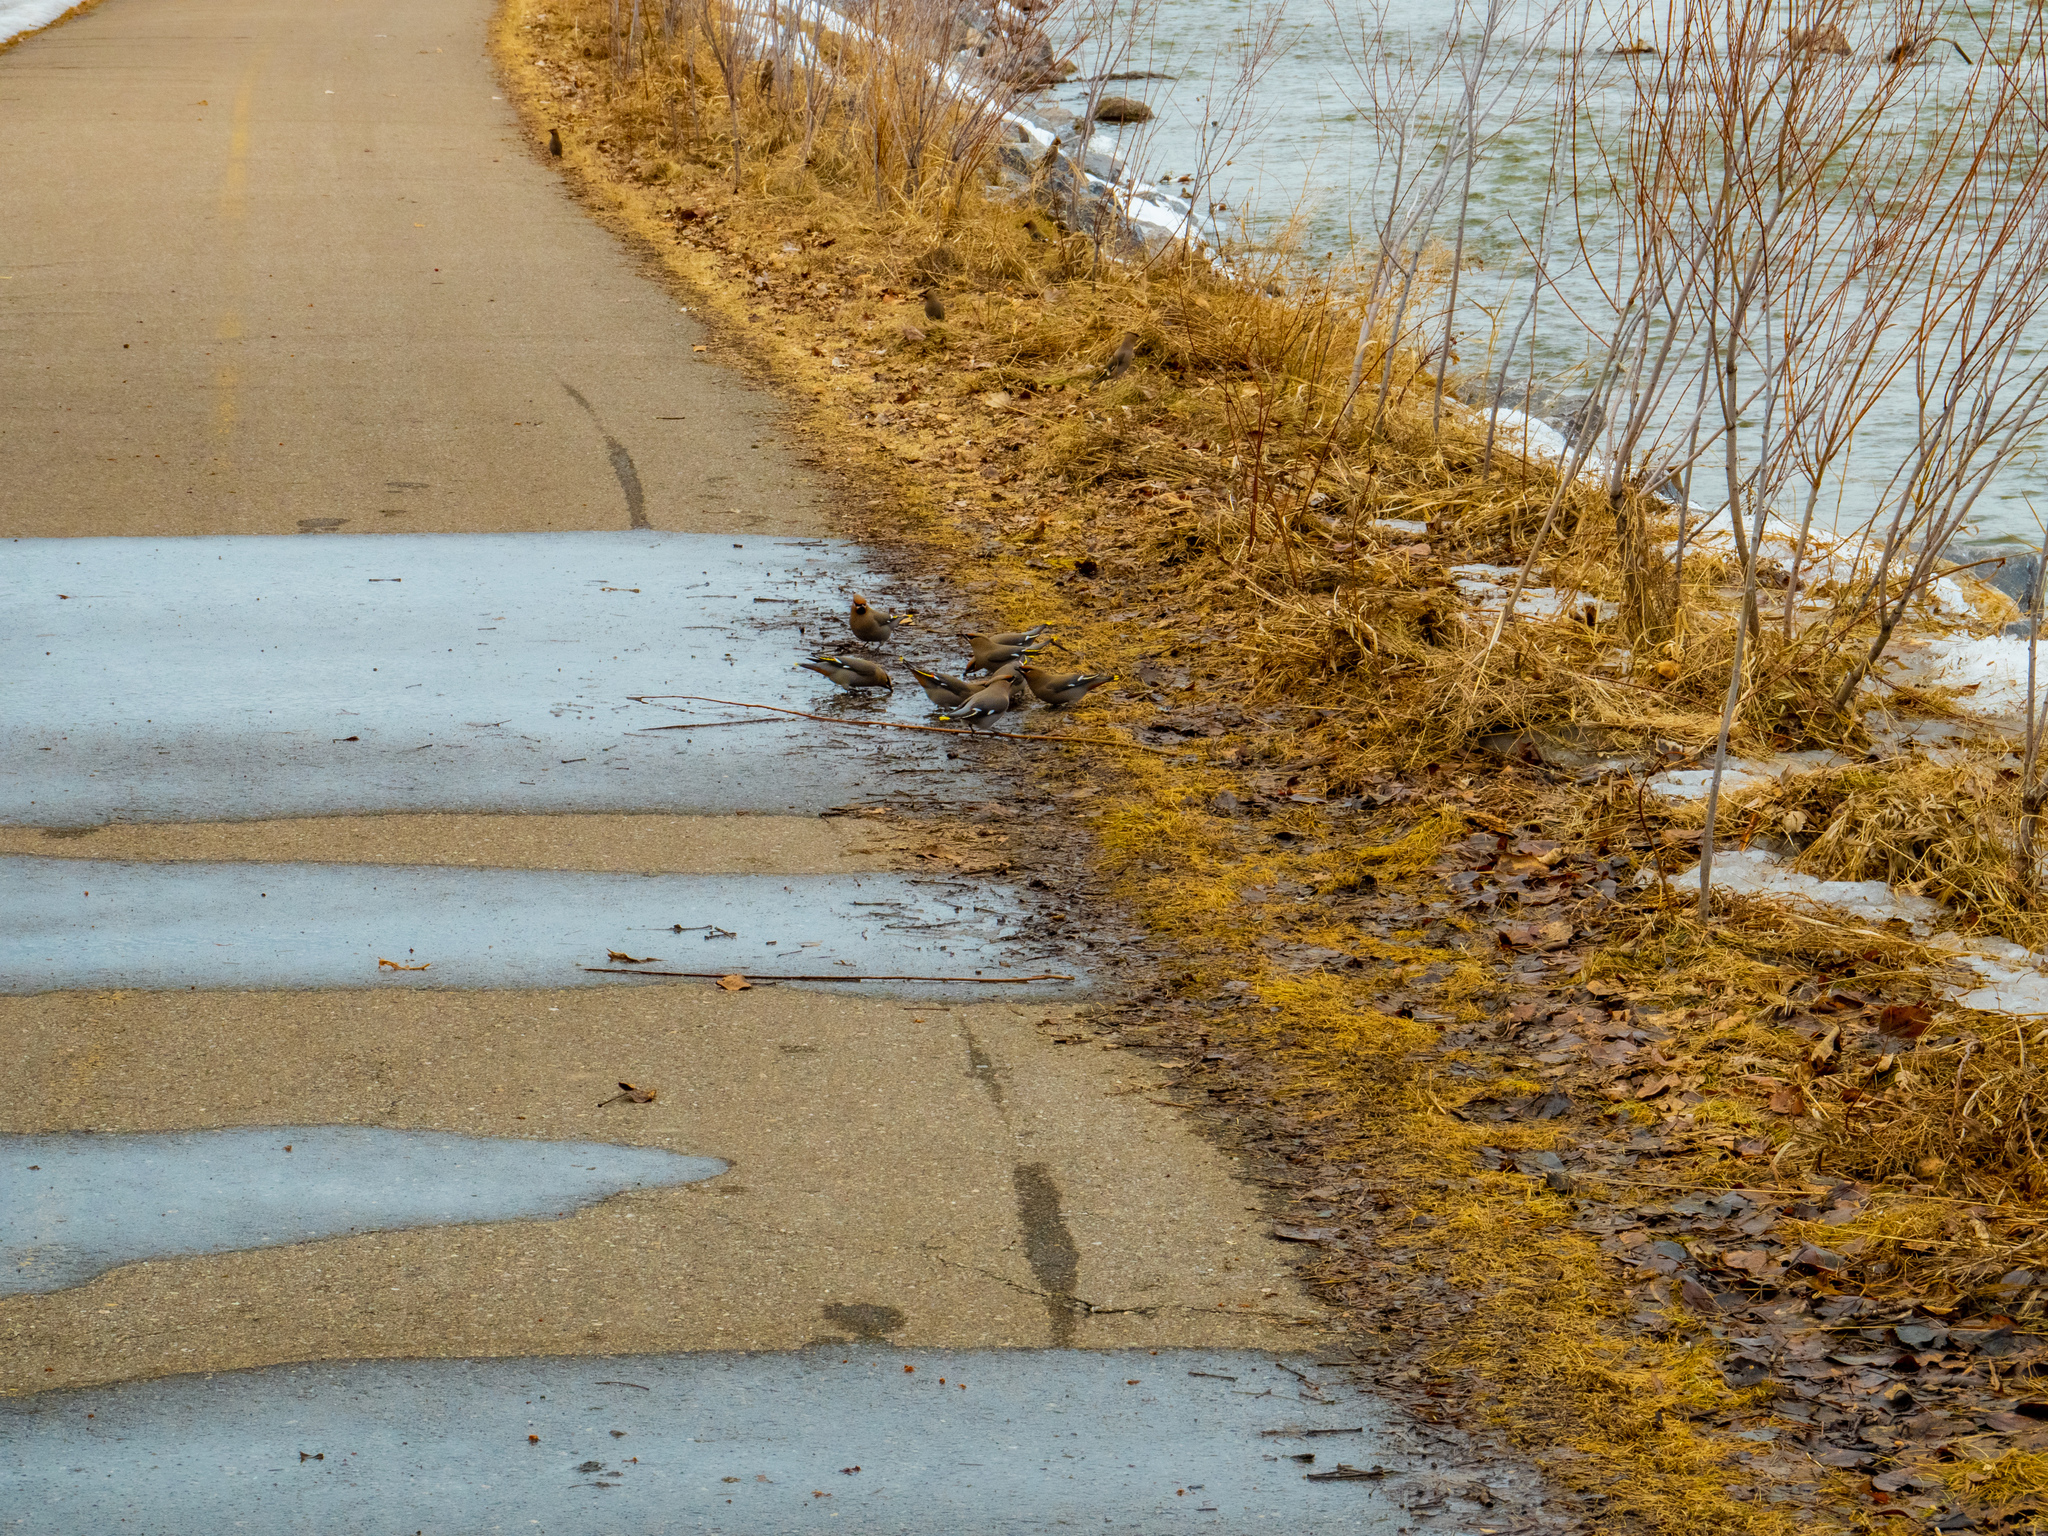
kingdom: Animalia
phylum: Chordata
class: Aves
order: Passeriformes
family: Bombycillidae
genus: Bombycilla
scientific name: Bombycilla garrulus
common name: Bohemian waxwing
